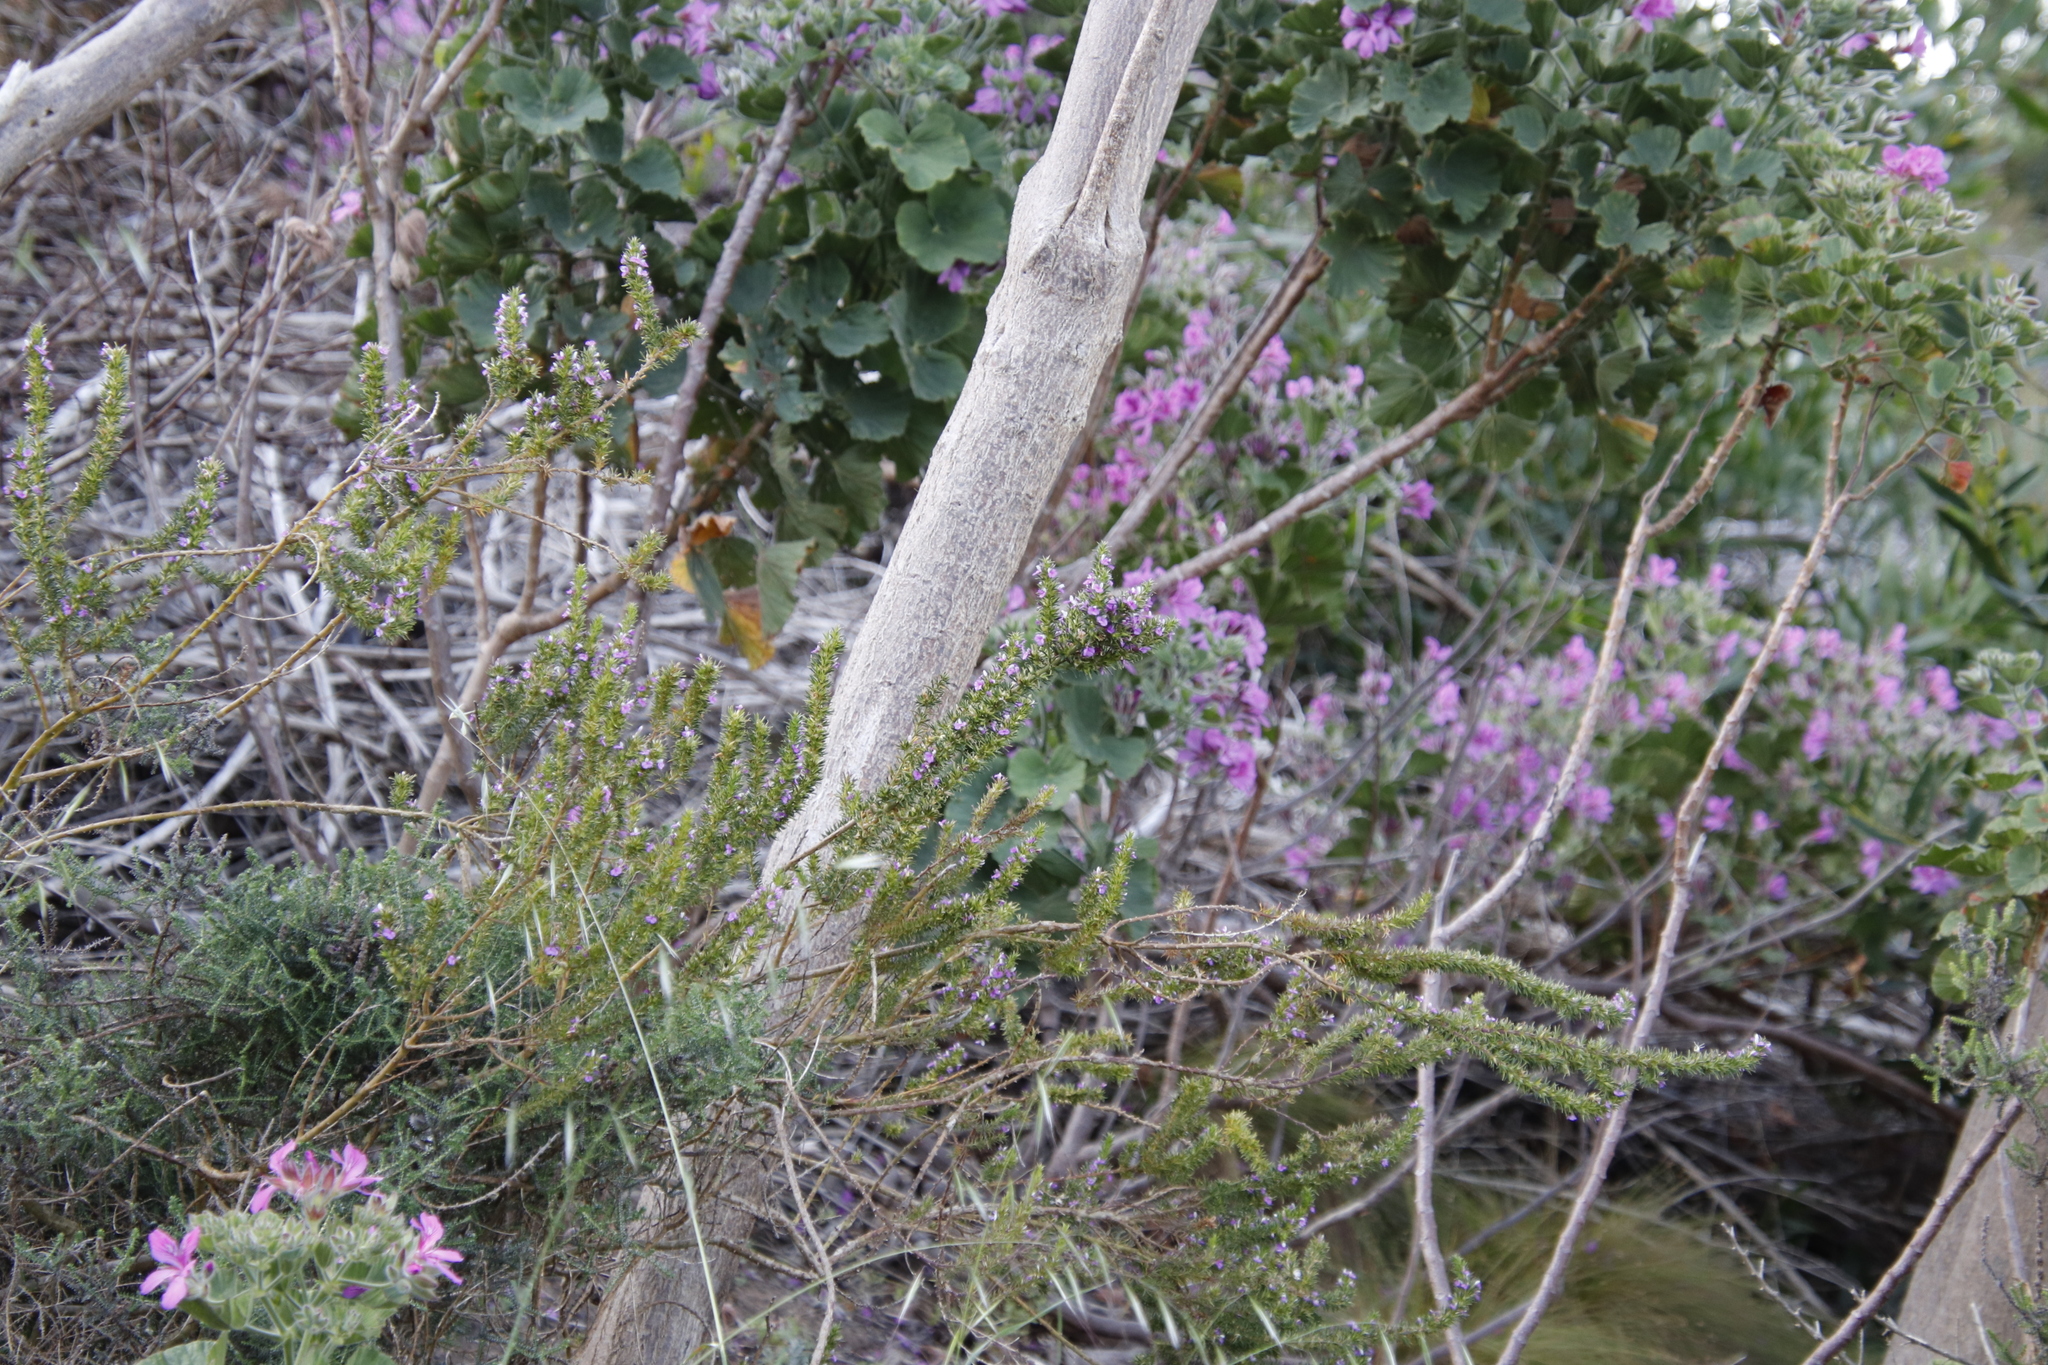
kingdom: Plantae
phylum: Tracheophyta
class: Magnoliopsida
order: Fabales
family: Polygalaceae
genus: Muraltia
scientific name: Muraltia heisteria
